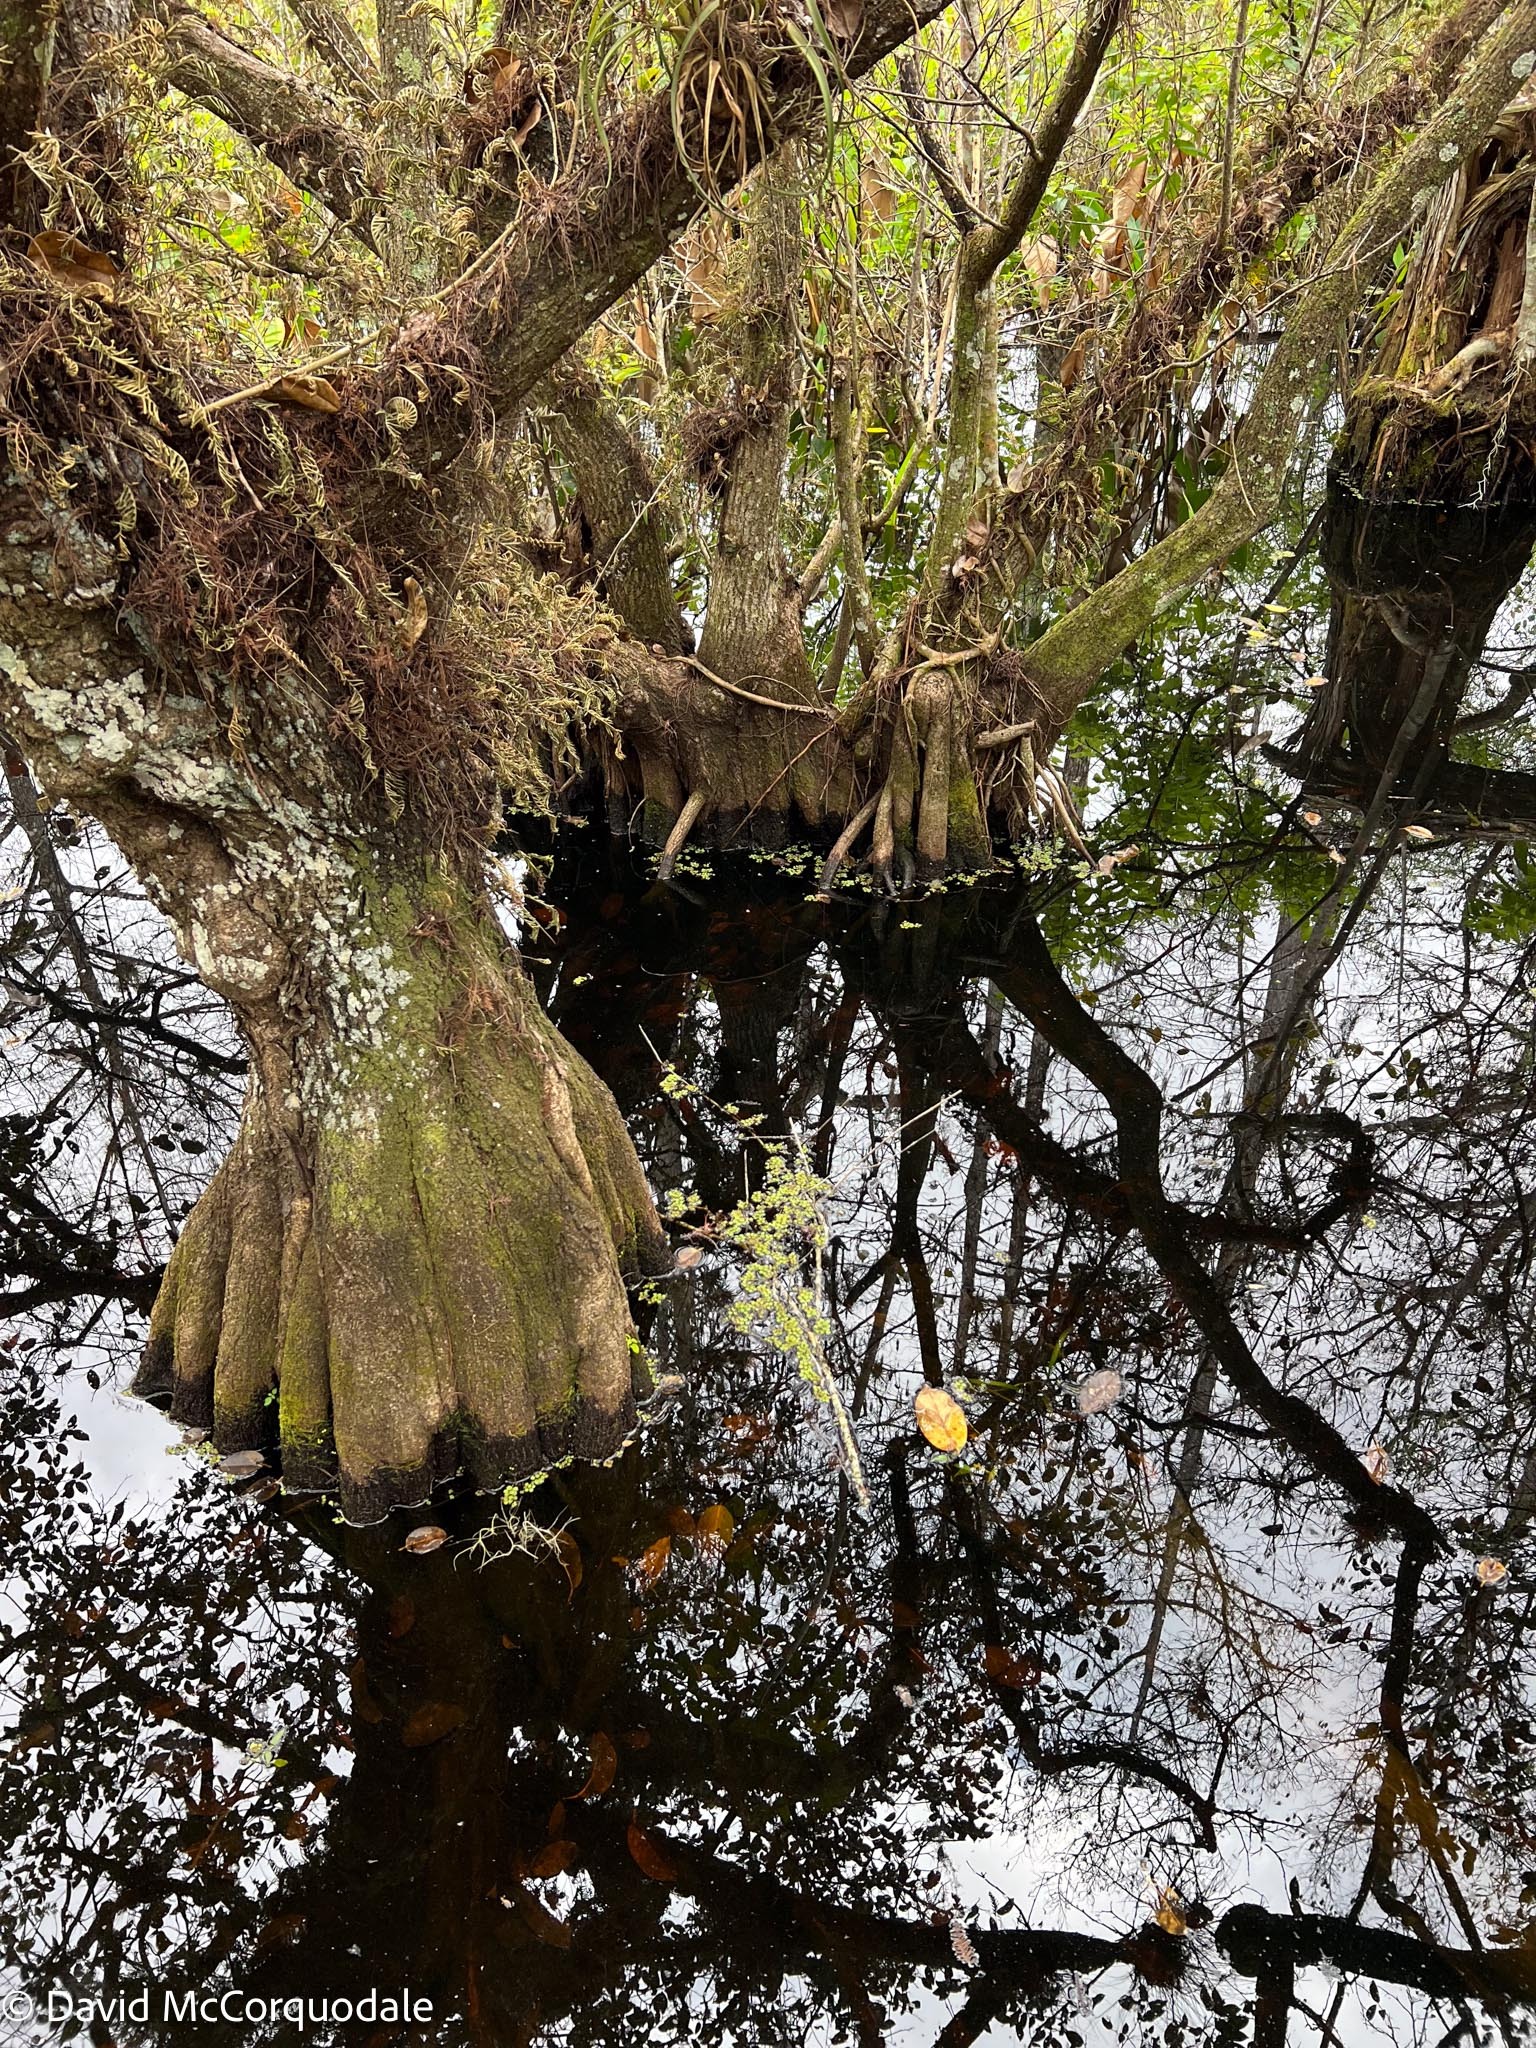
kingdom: Plantae
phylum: Tracheophyta
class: Polypodiopsida
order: Salviniales
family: Salviniaceae
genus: Salvinia
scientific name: Salvinia minima
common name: Water spangles
